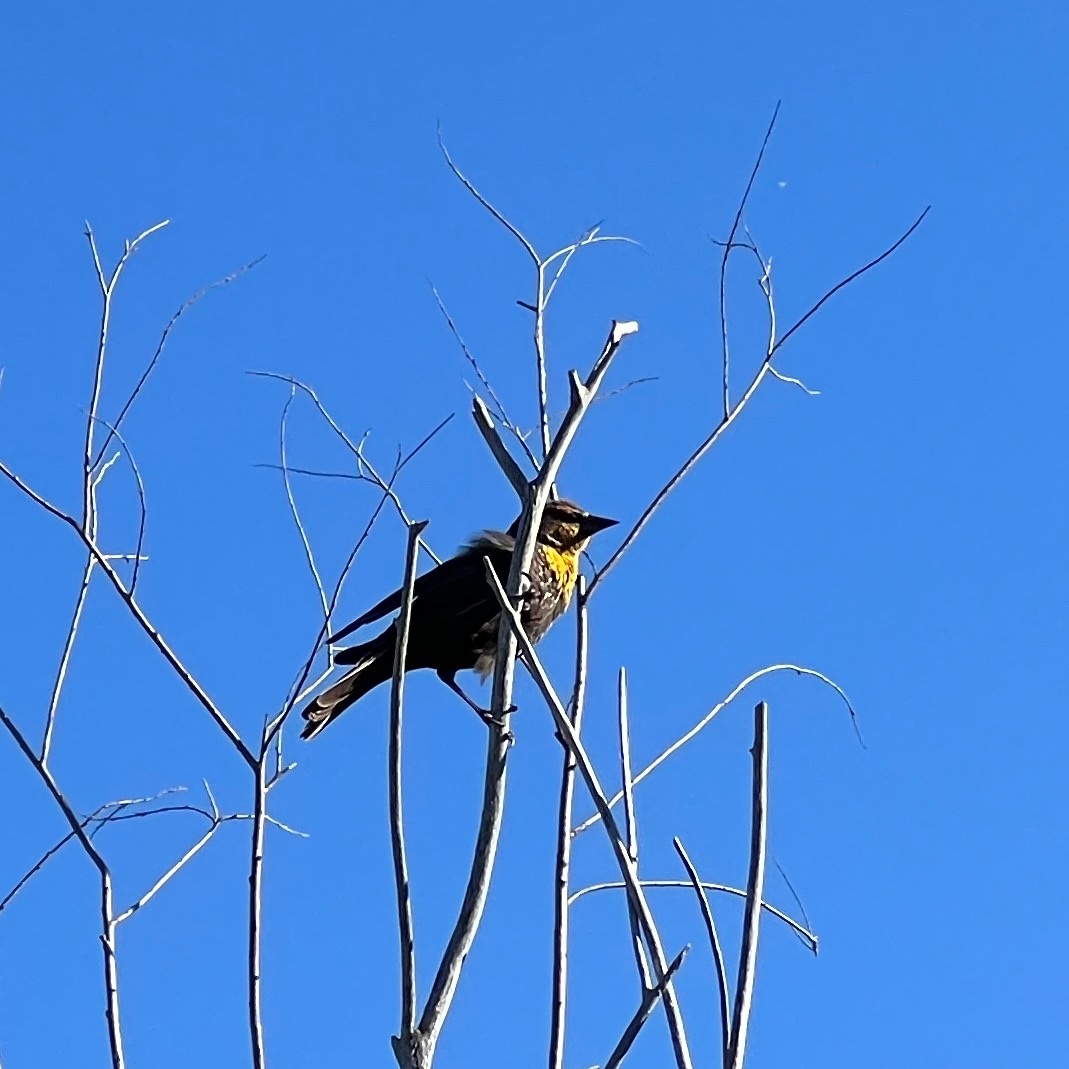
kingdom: Animalia
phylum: Chordata
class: Aves
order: Passeriformes
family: Icteridae
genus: Xanthocephalus
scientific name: Xanthocephalus xanthocephalus
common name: Yellow-headed blackbird
